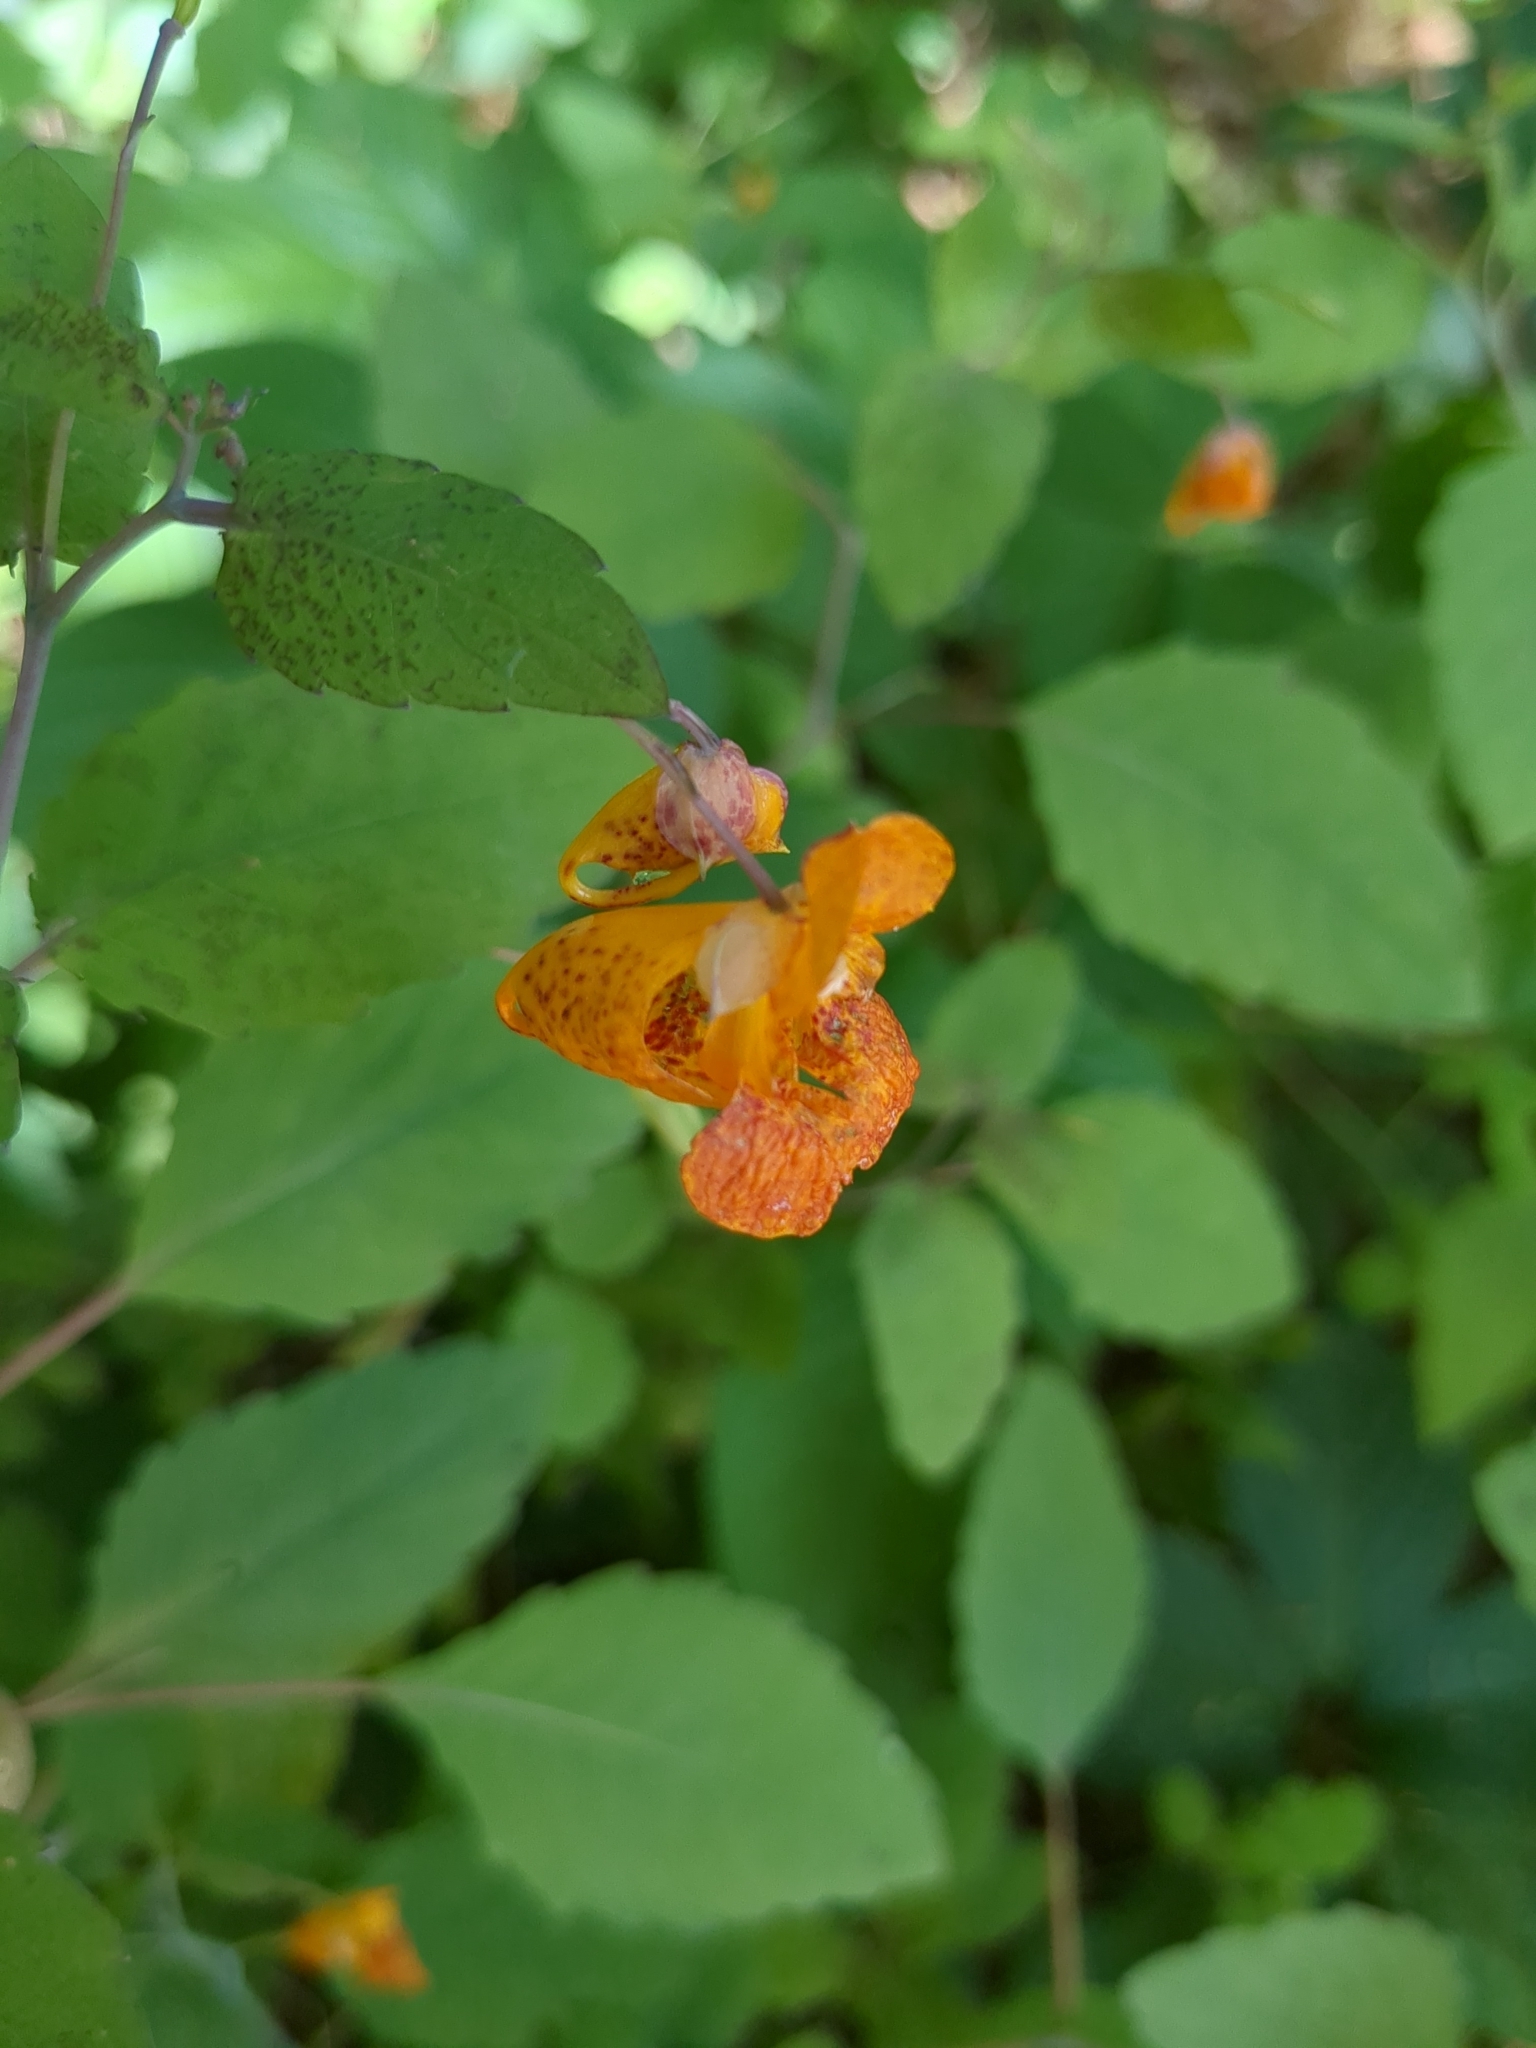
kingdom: Plantae
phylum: Tracheophyta
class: Magnoliopsida
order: Ericales
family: Balsaminaceae
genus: Impatiens
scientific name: Impatiens capensis
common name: Orange balsam
